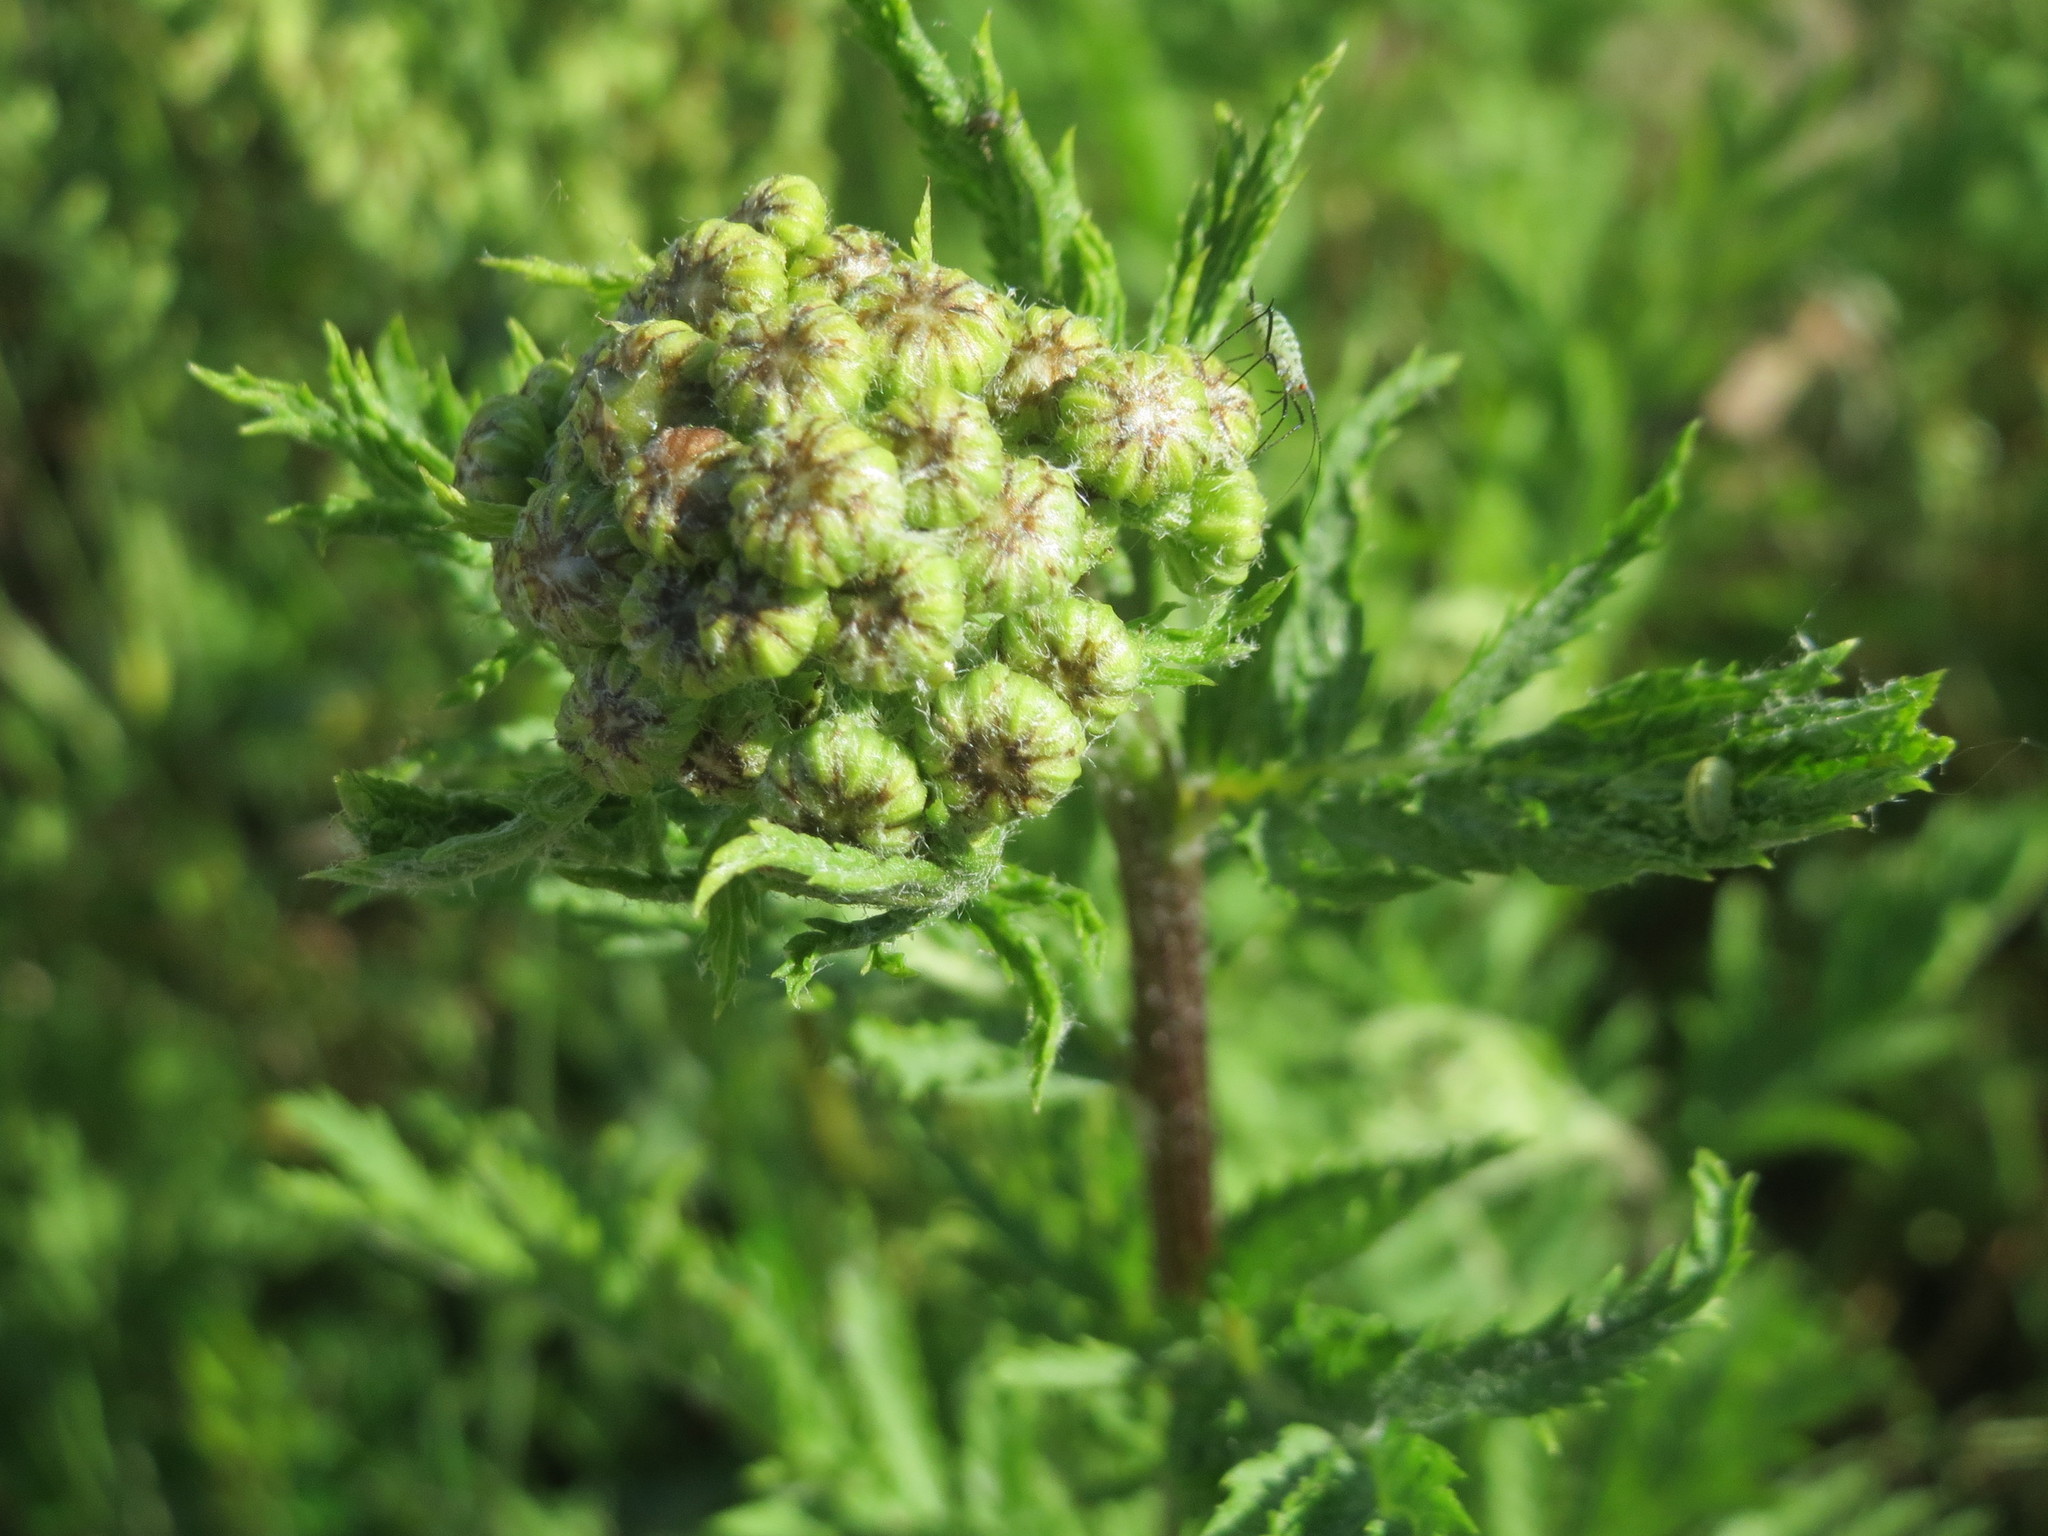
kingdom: Plantae
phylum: Tracheophyta
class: Magnoliopsida
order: Asterales
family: Asteraceae
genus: Tanacetum
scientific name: Tanacetum vulgare
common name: Common tansy
